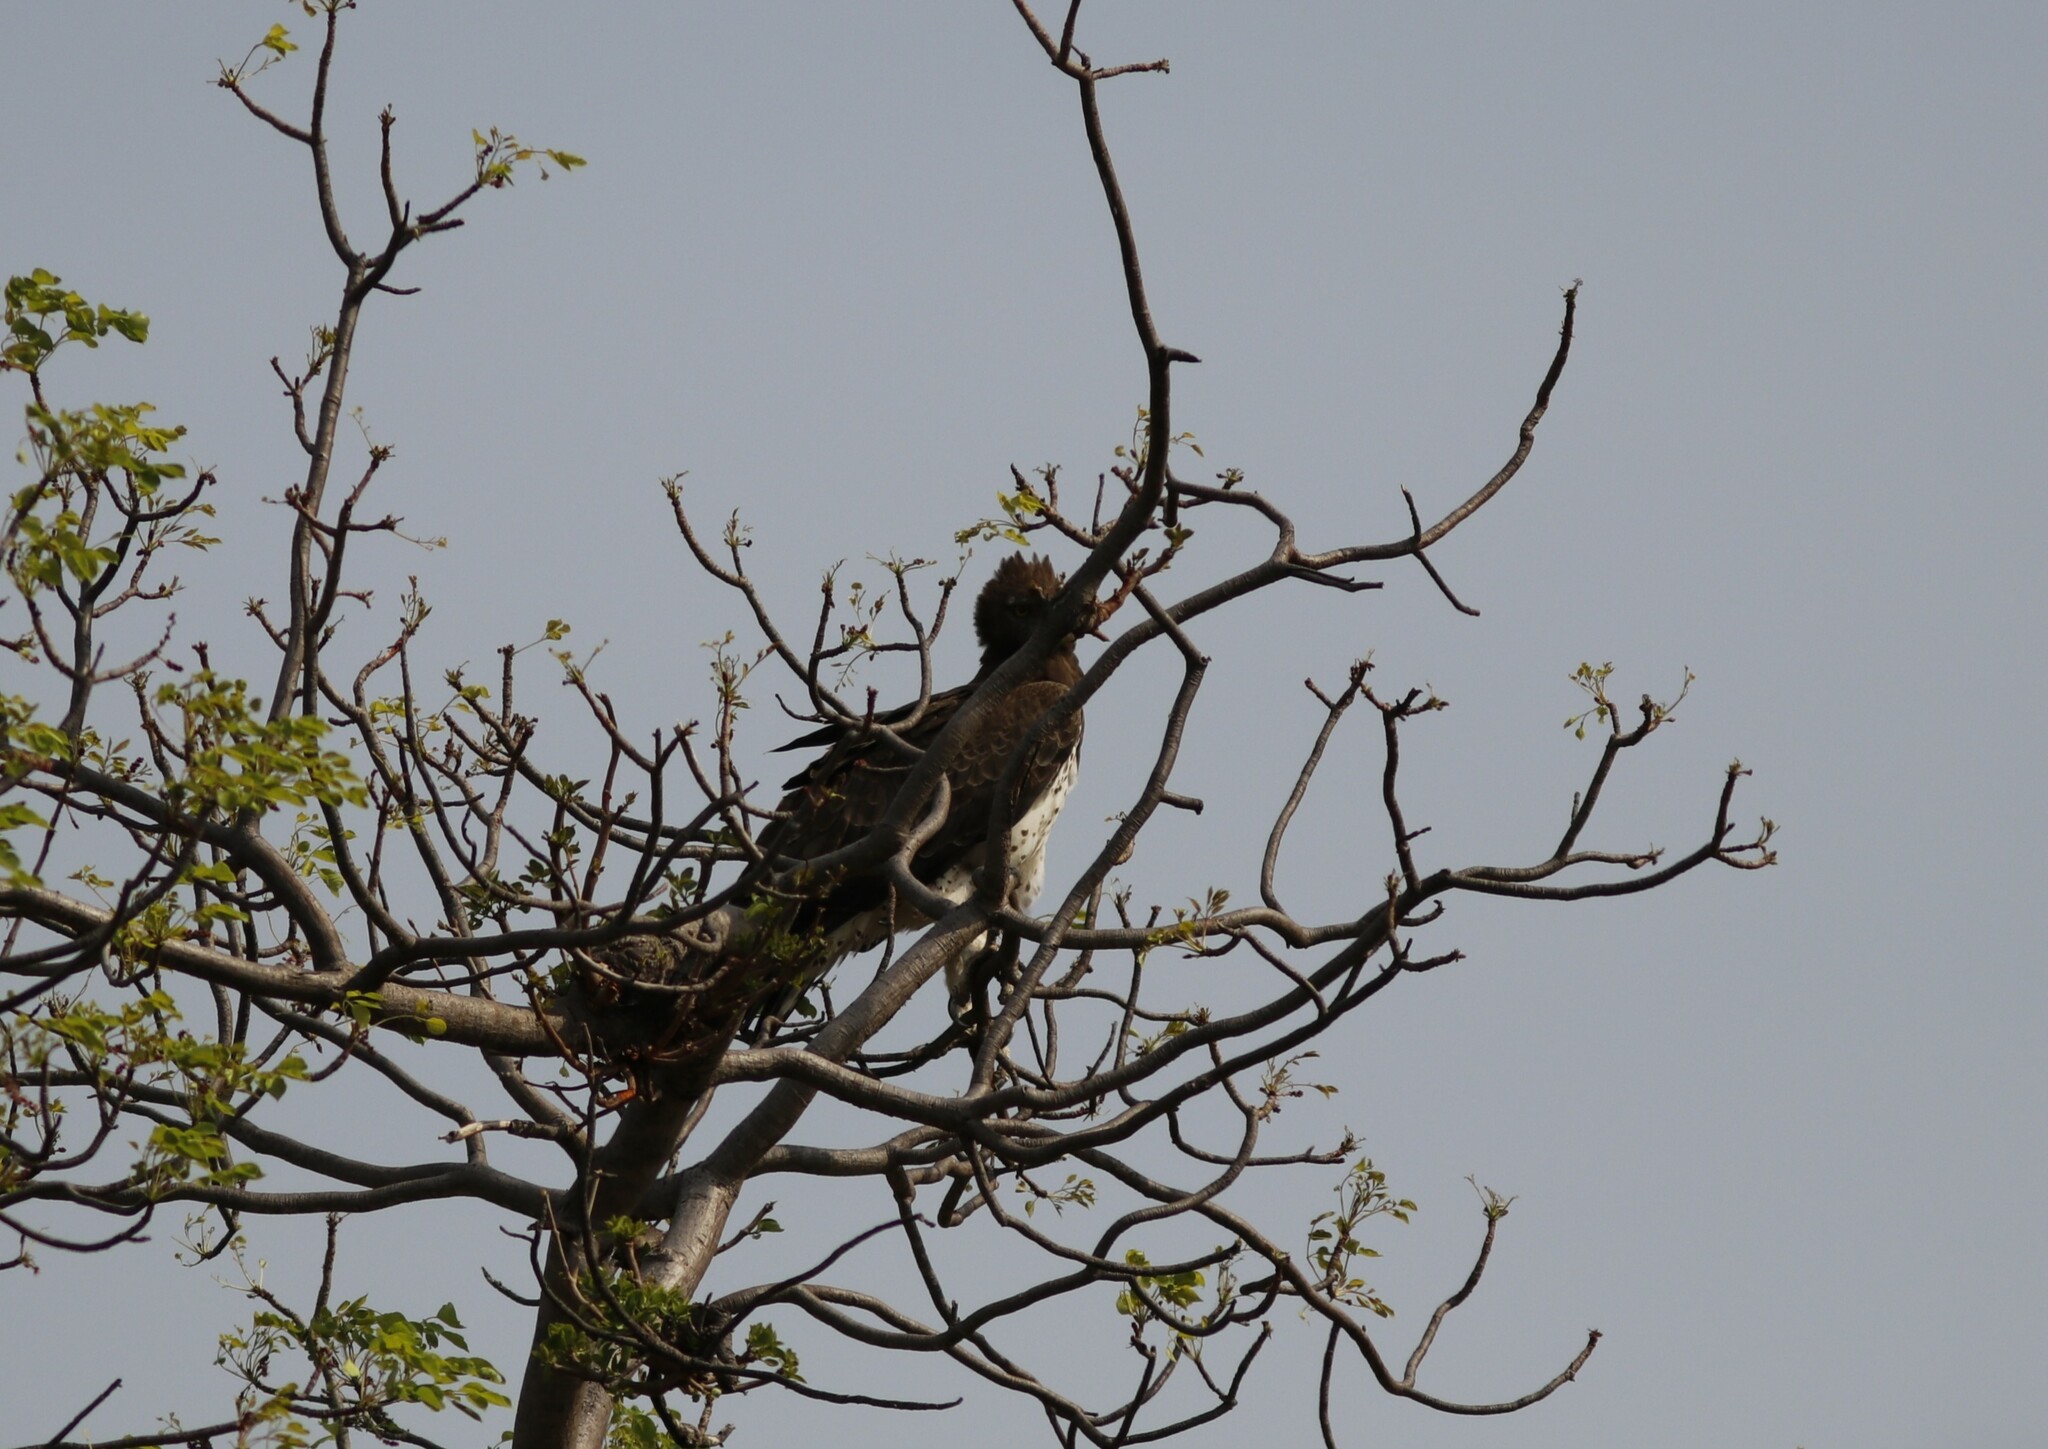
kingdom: Animalia
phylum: Chordata
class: Aves
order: Accipitriformes
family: Accipitridae
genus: Polemaetus
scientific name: Polemaetus bellicosus
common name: Martial eagle
